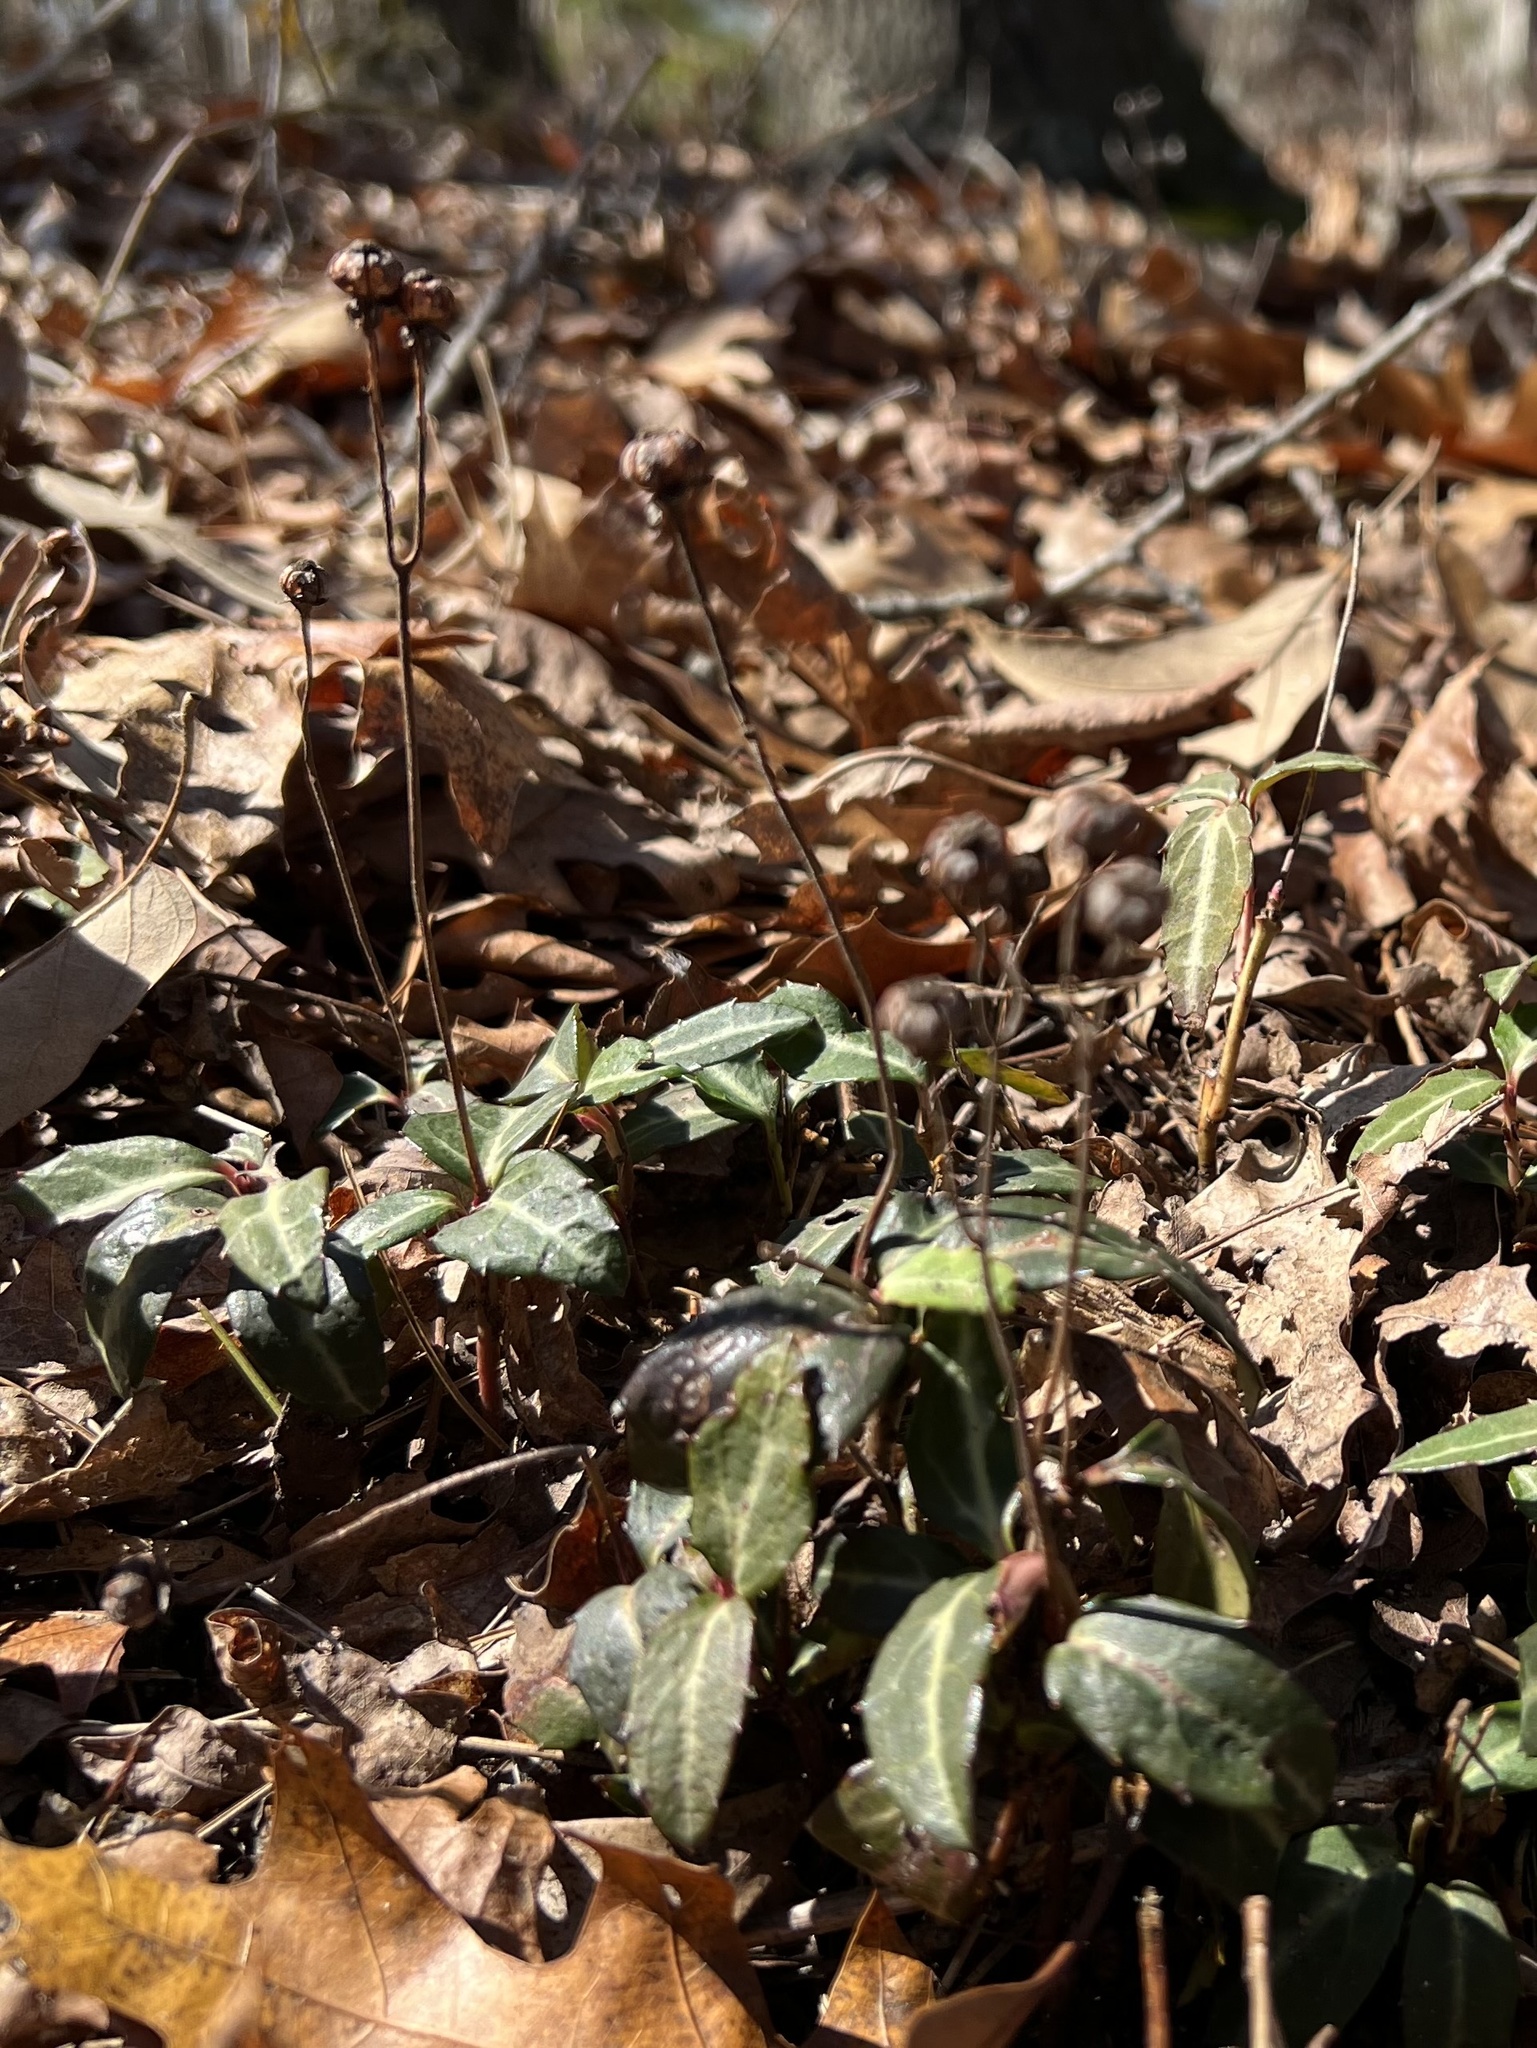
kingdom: Plantae
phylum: Tracheophyta
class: Magnoliopsida
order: Ericales
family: Ericaceae
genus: Chimaphila
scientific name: Chimaphila maculata
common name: Spotted pipsissewa
